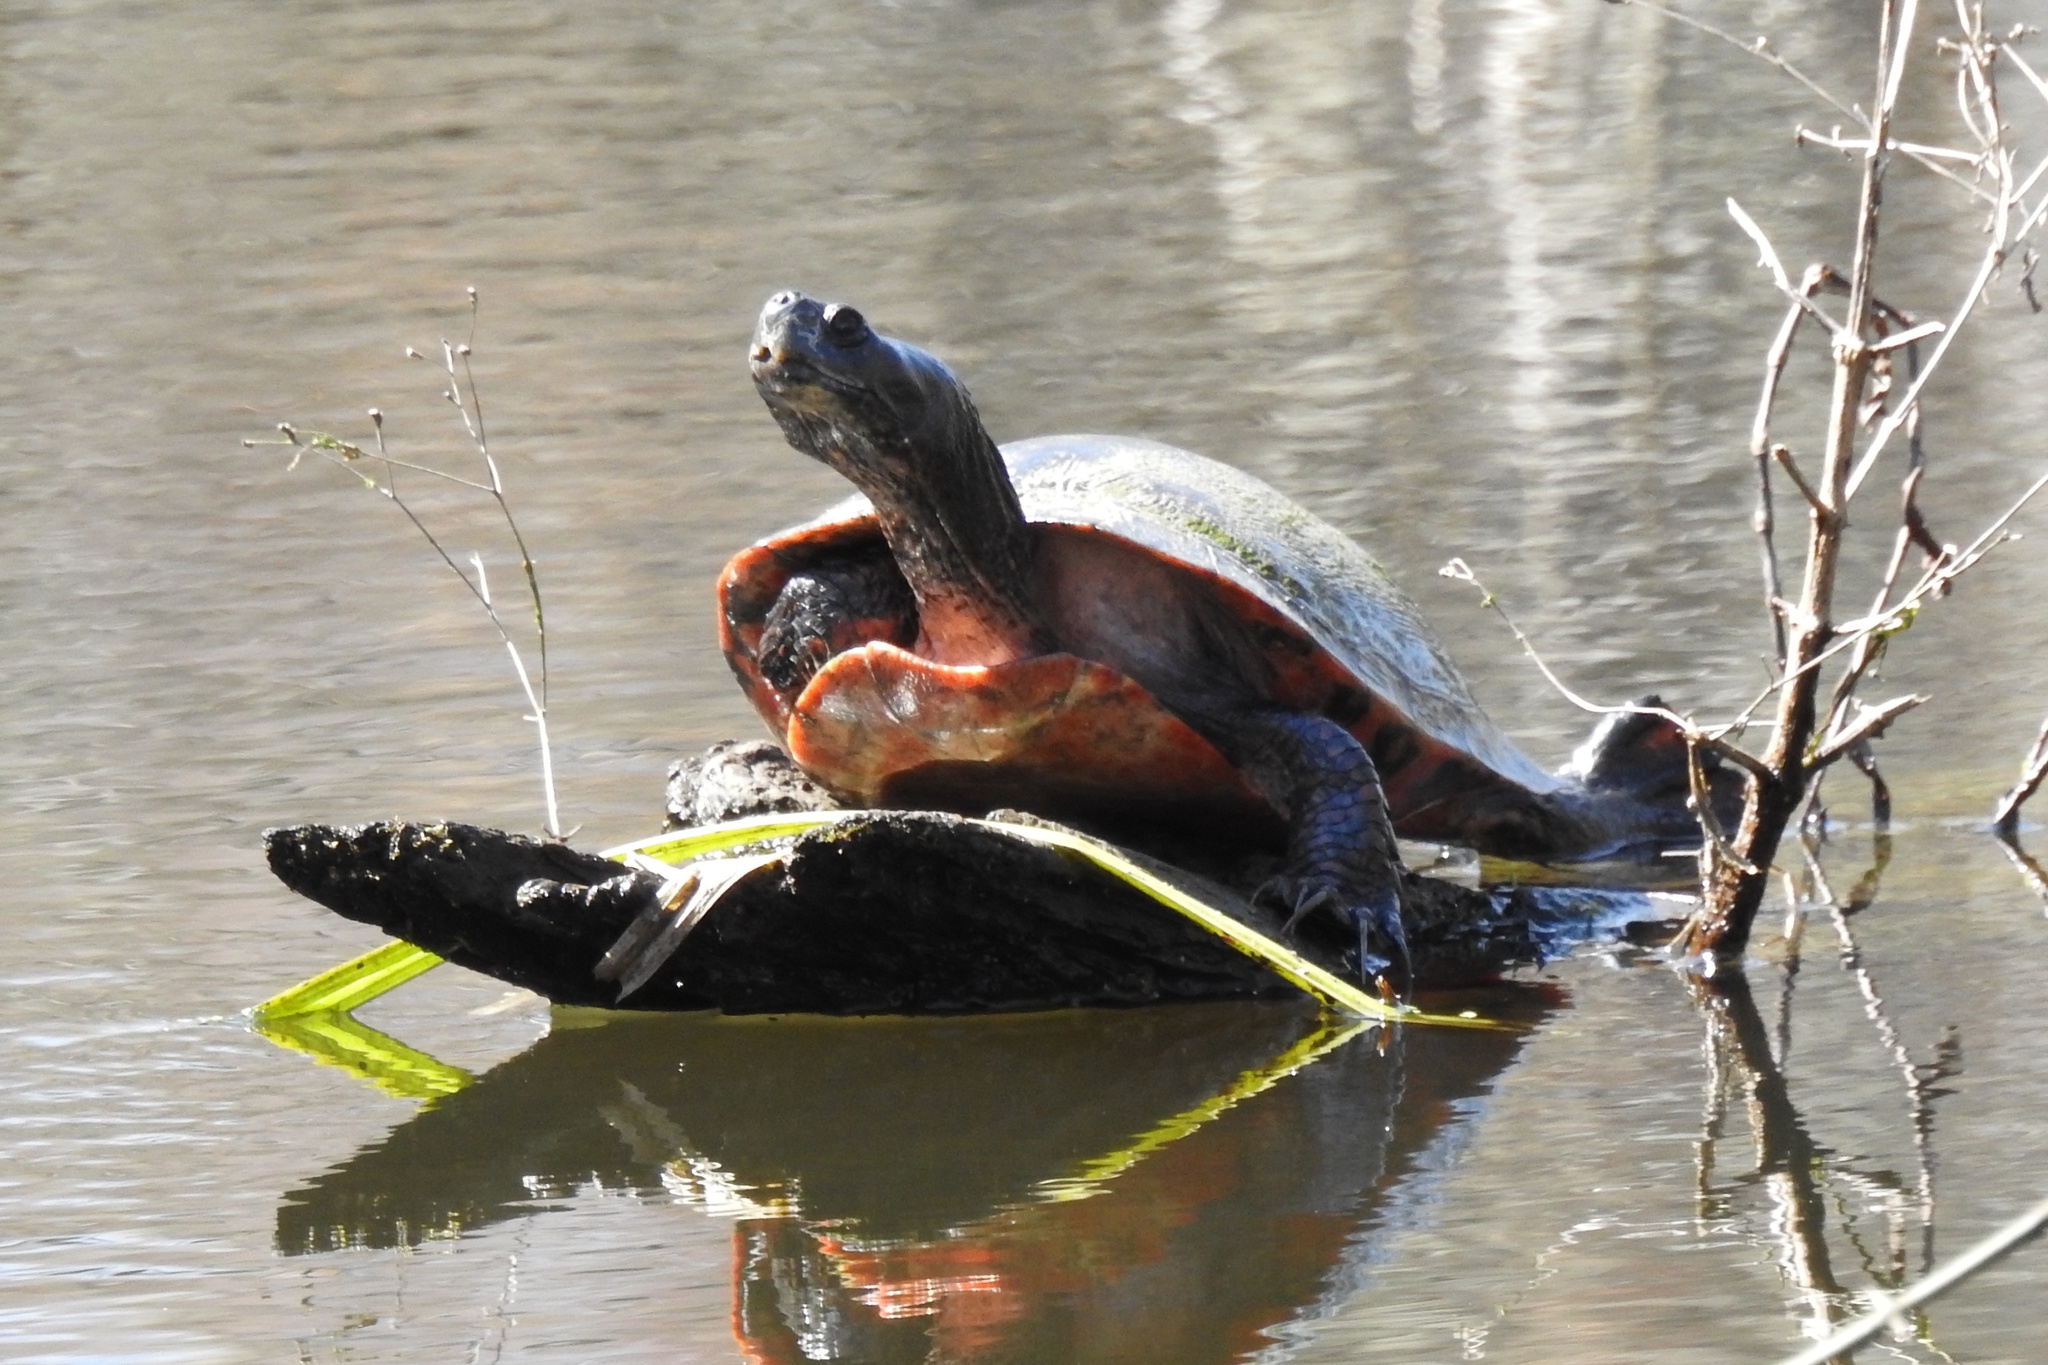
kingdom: Animalia
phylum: Chordata
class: Testudines
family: Emydidae
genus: Pseudemys
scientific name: Pseudemys rubriventris
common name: American red-bellied turtle
